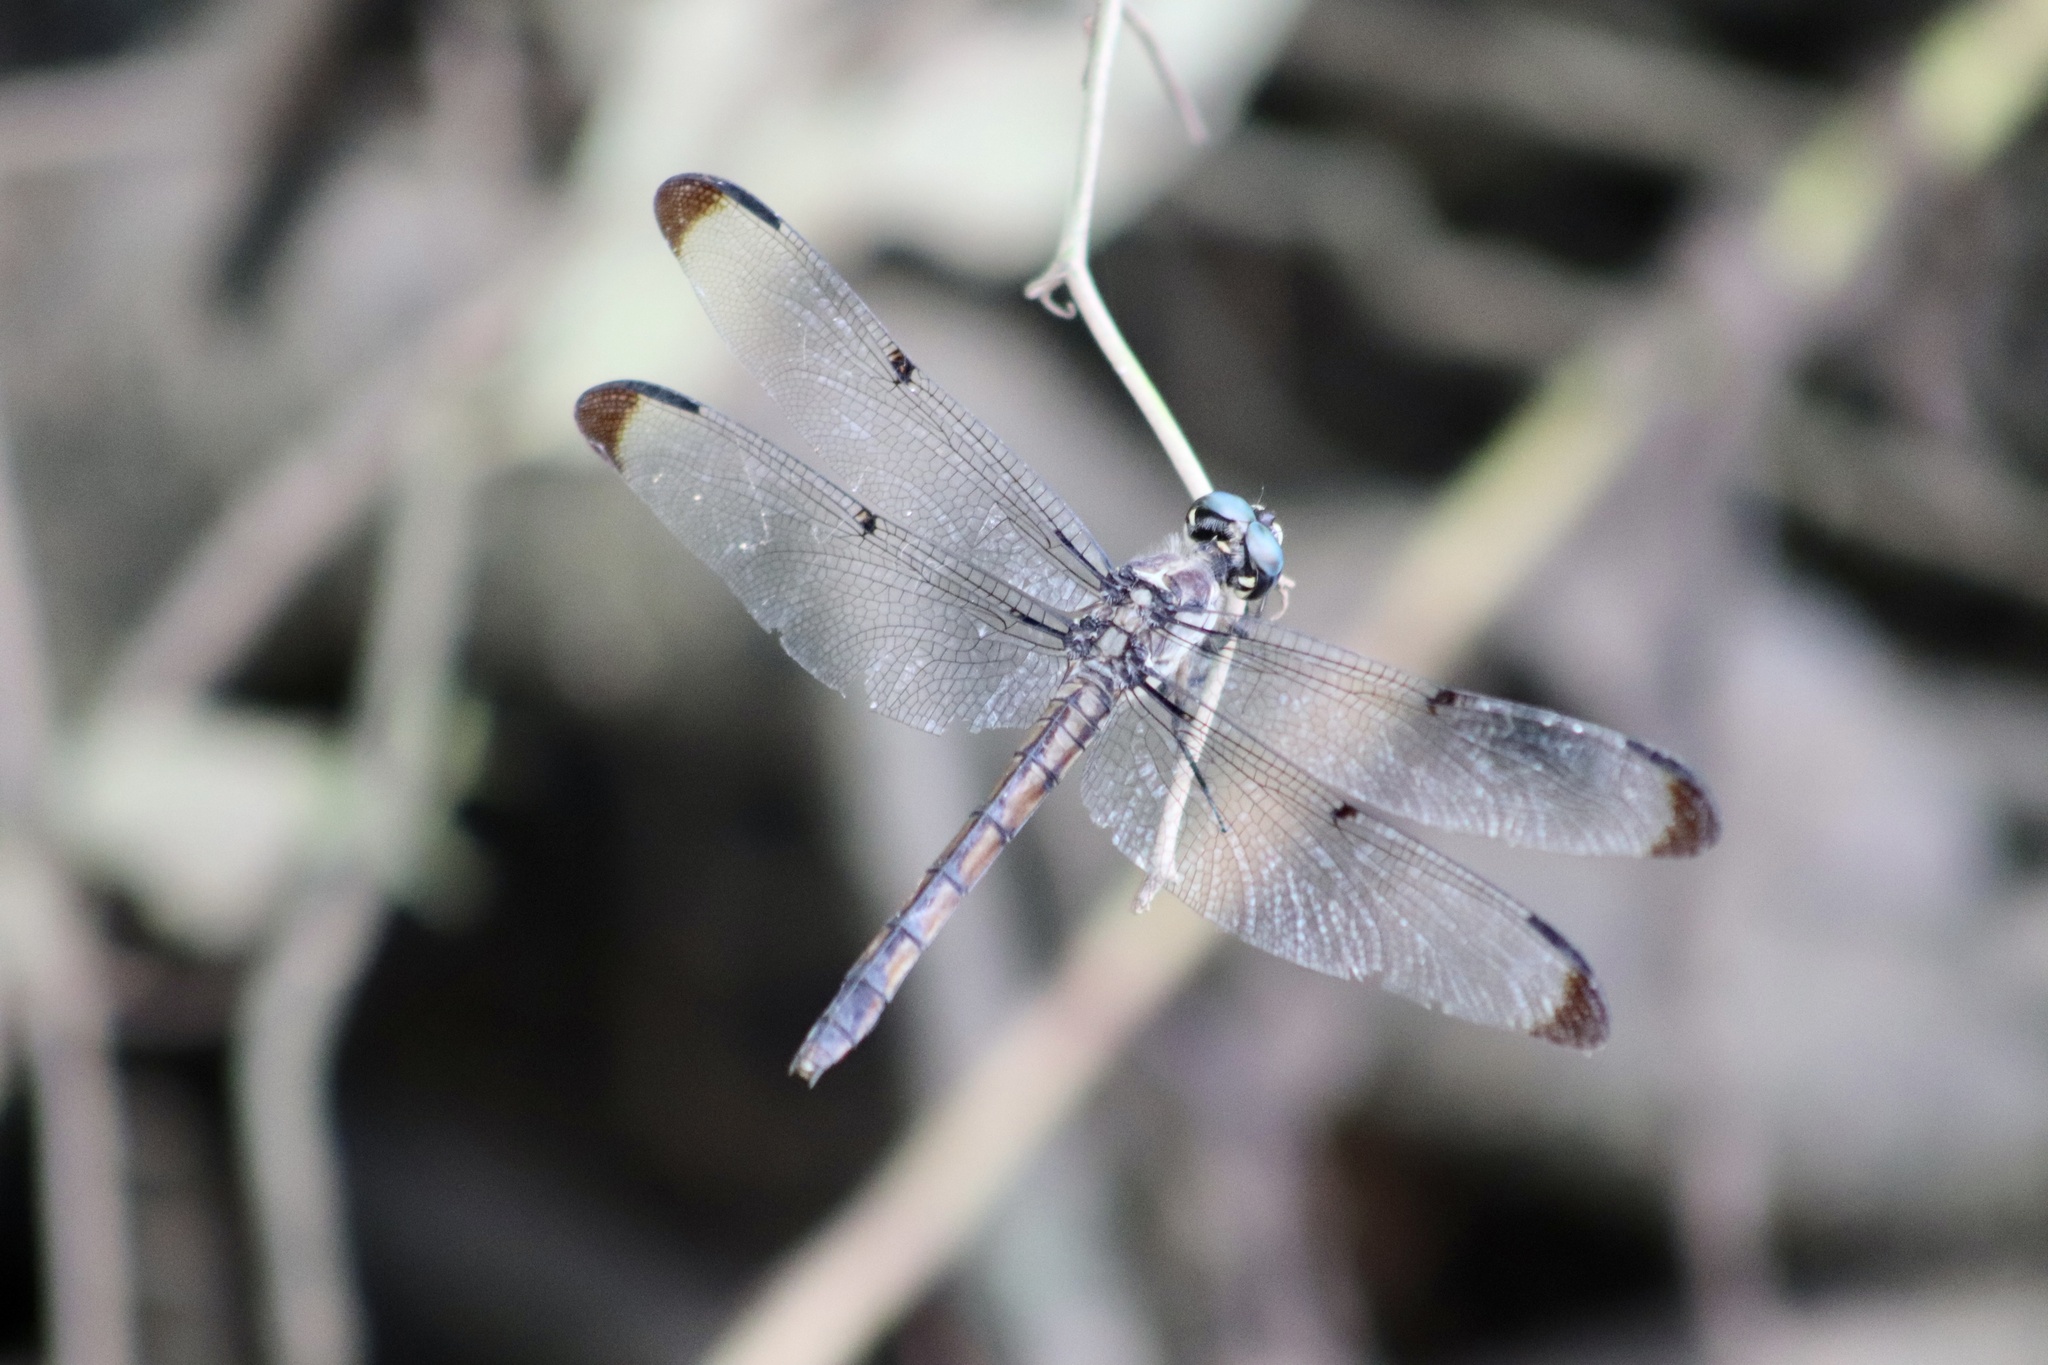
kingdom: Animalia
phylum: Arthropoda
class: Insecta
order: Odonata
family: Libellulidae
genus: Libellula
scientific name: Libellula vibrans
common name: Great blue skimmer
